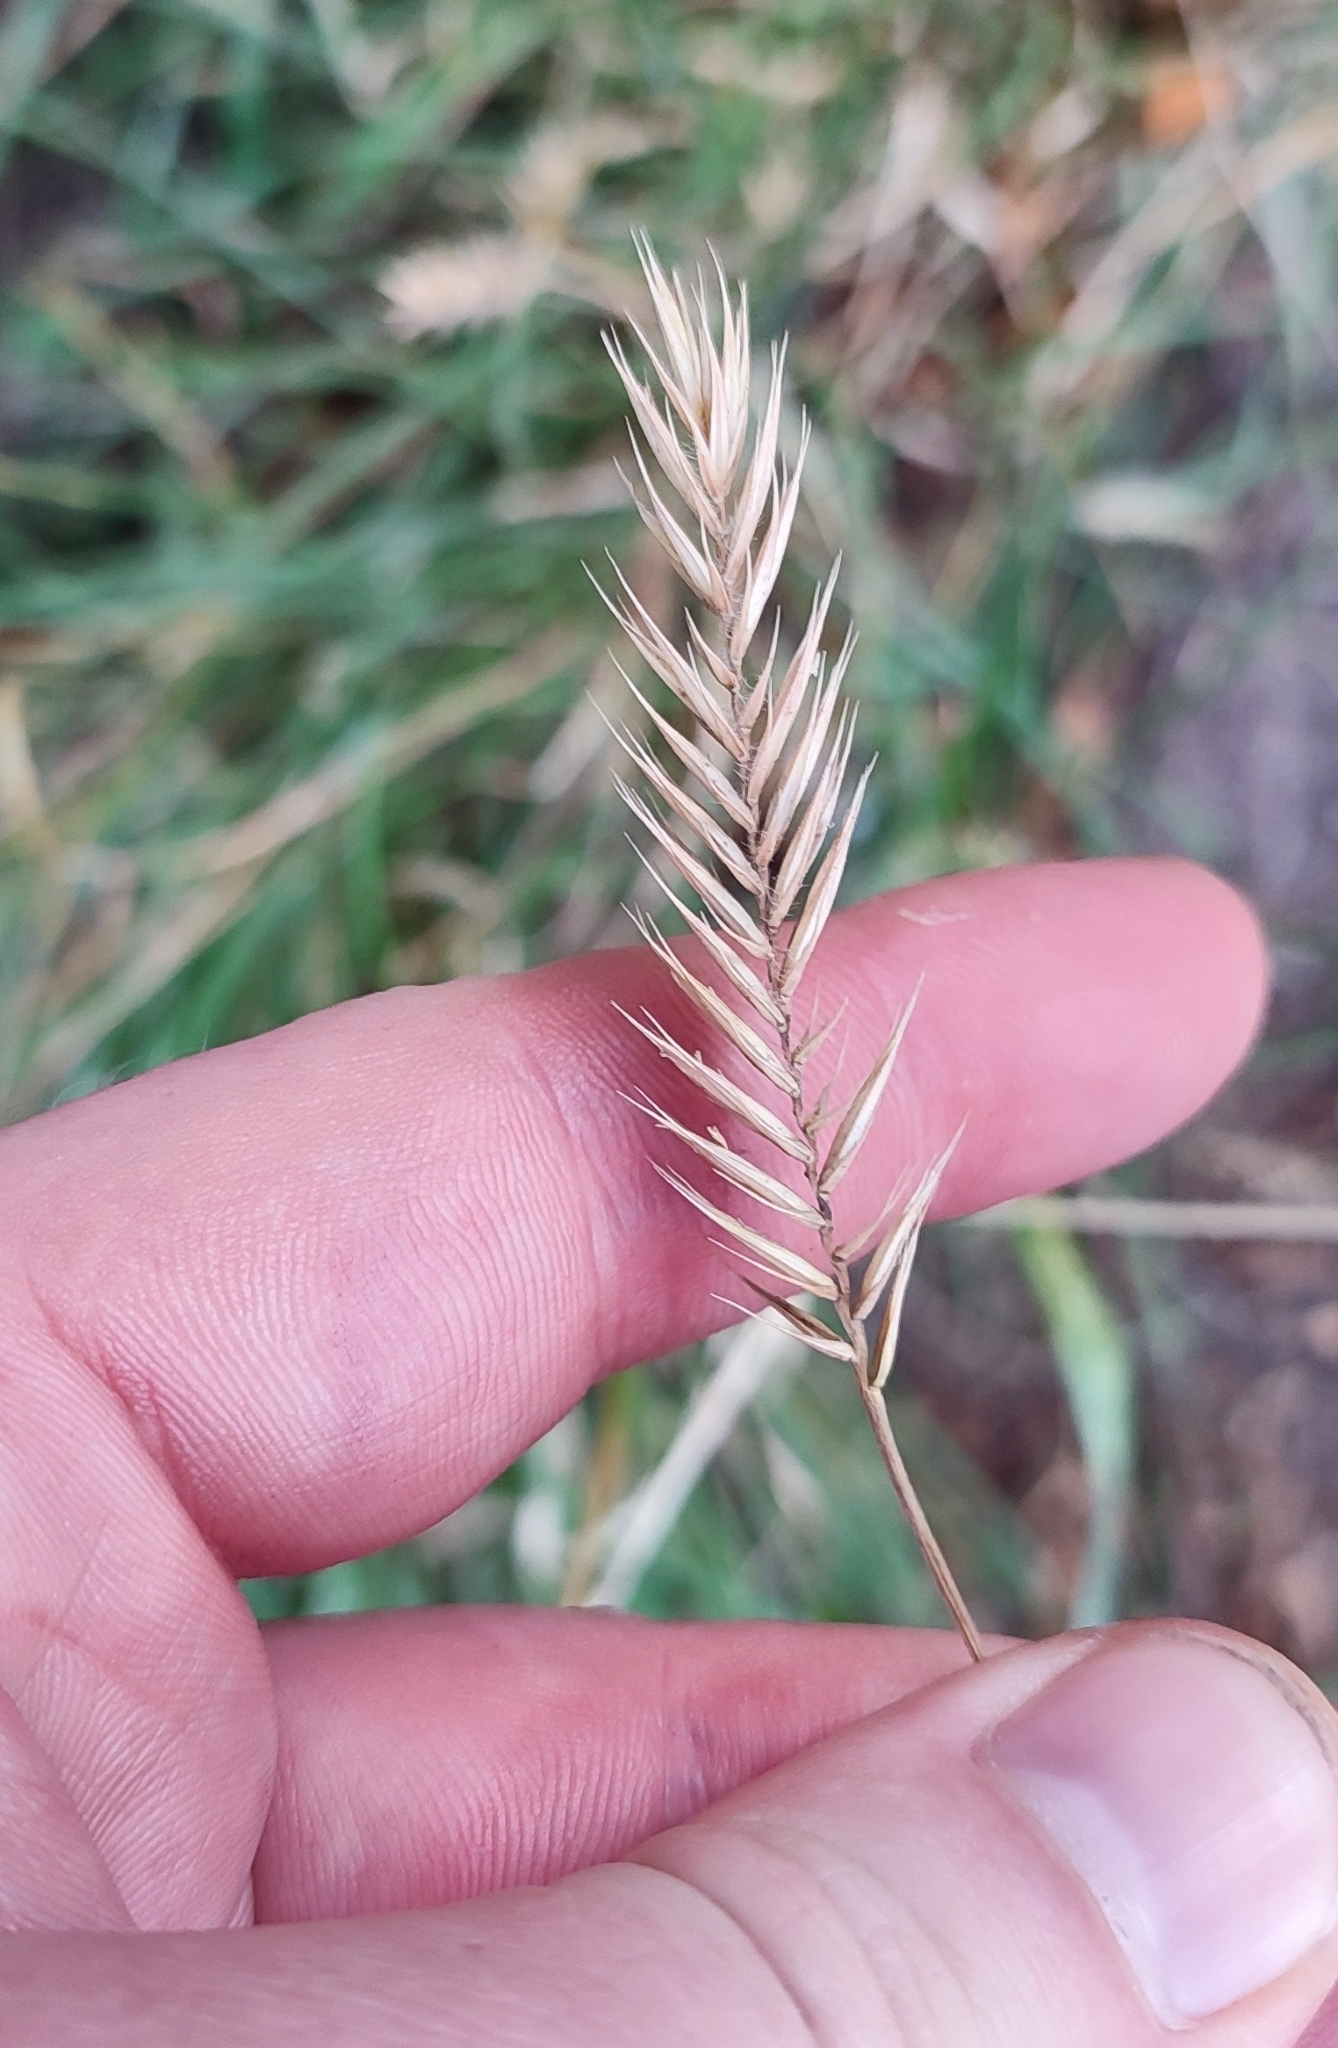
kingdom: Plantae
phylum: Tracheophyta
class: Liliopsida
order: Poales
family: Poaceae
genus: Agropyron
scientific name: Agropyron cristatum
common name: Crested wheatgrass
